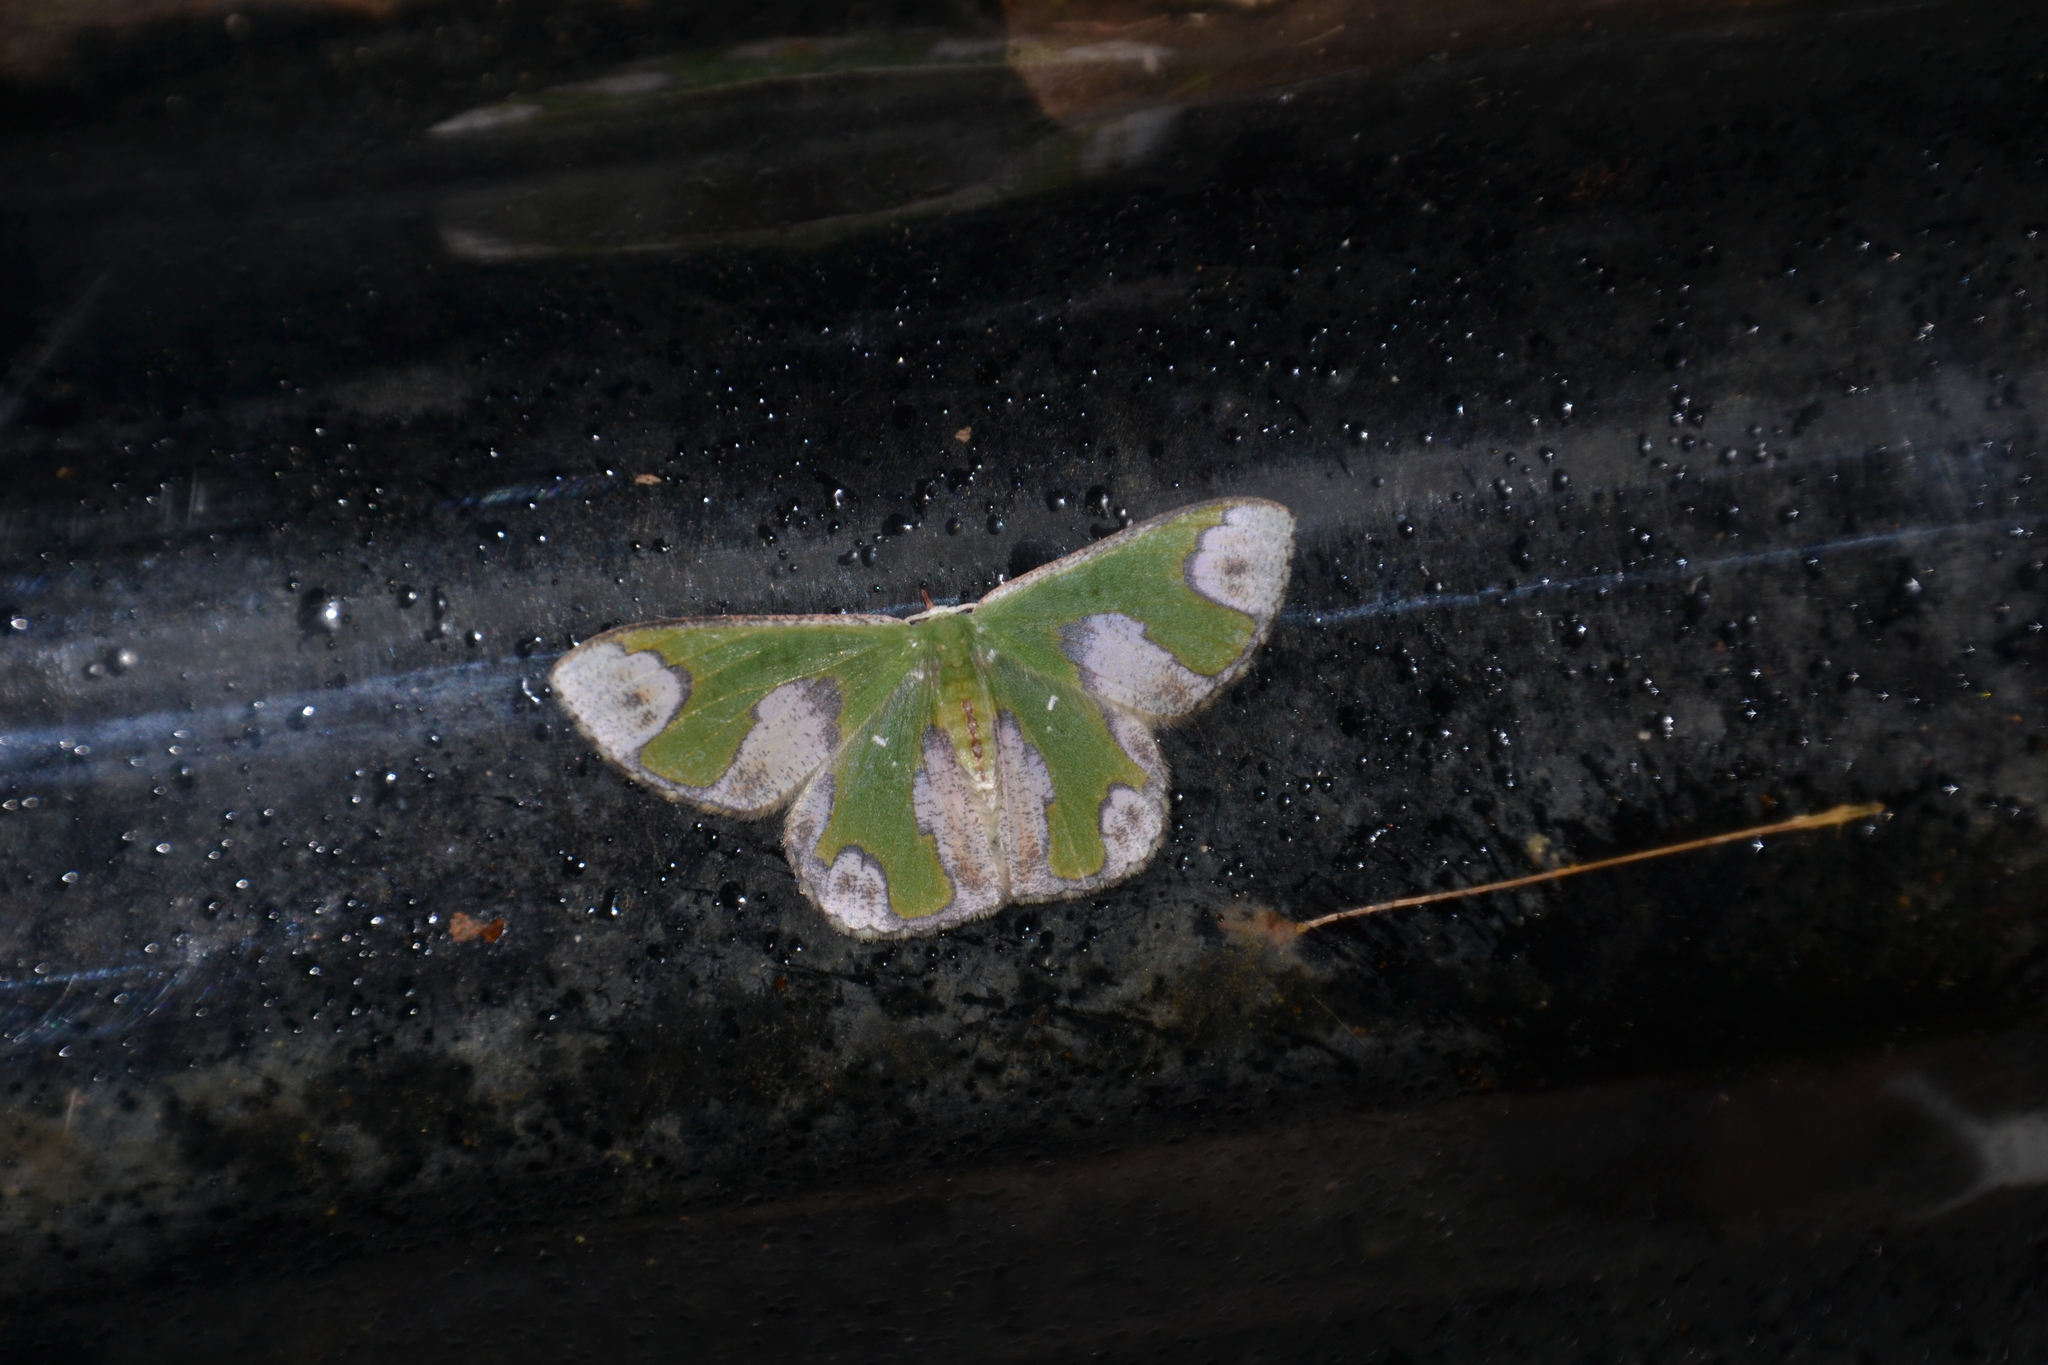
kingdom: Animalia
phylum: Arthropoda
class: Insecta
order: Lepidoptera
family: Geometridae
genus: Oospila
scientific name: Oospila ruptimacula
